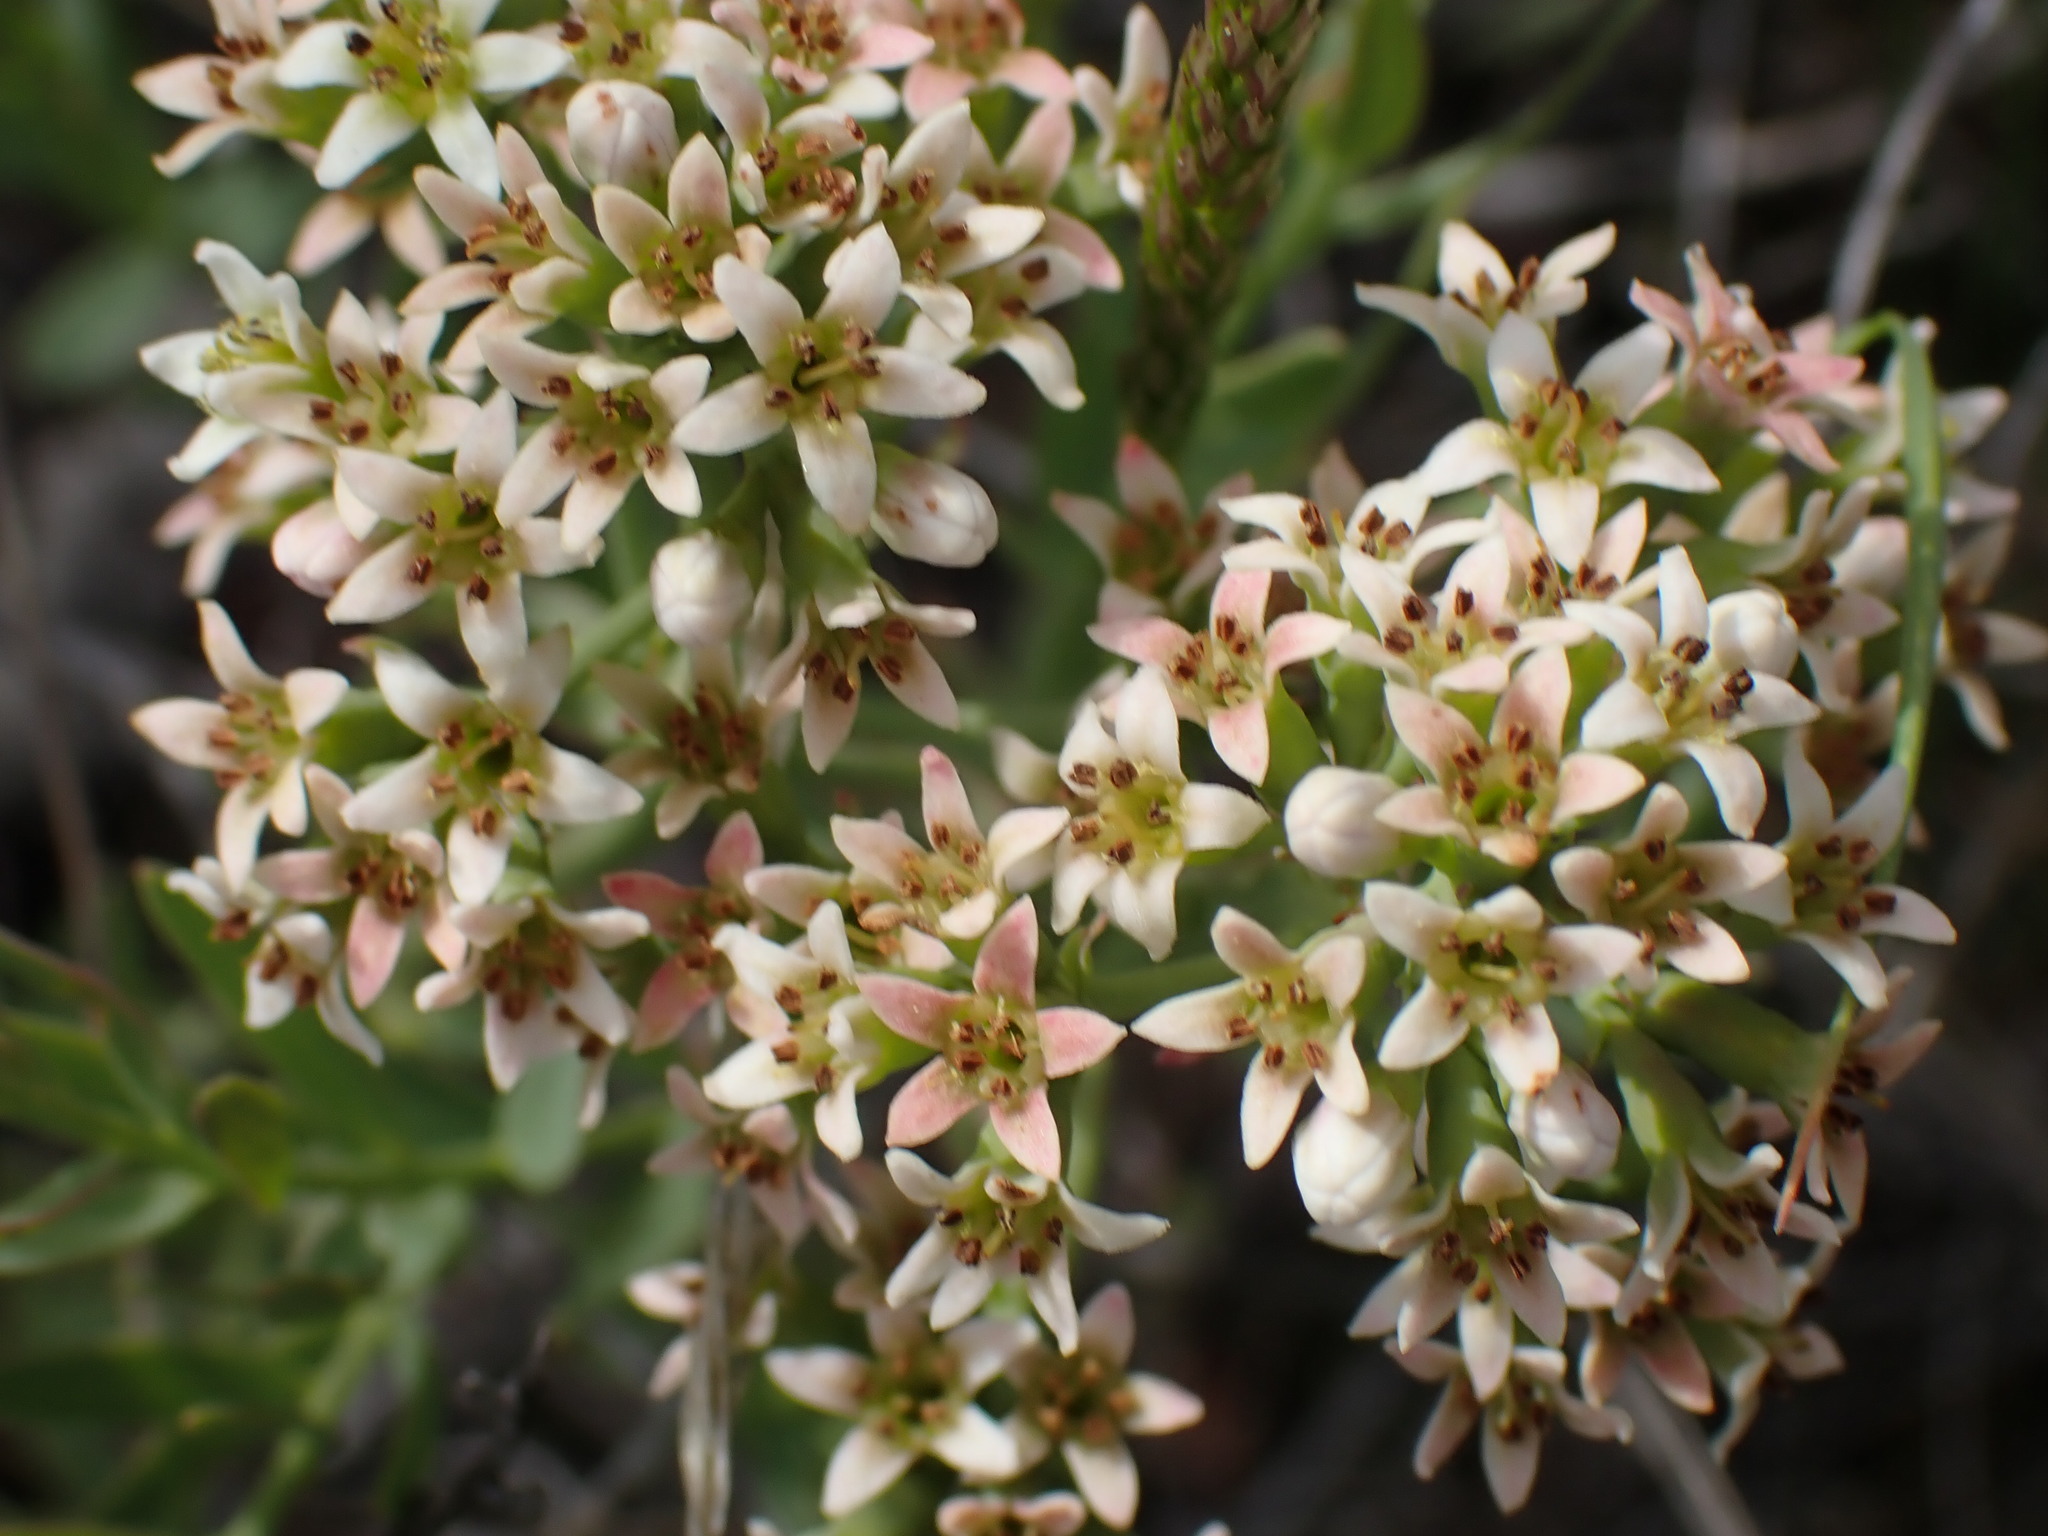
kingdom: Plantae
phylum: Tracheophyta
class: Magnoliopsida
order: Santalales
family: Comandraceae
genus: Comandra
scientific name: Comandra umbellata
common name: Bastard toadflax
